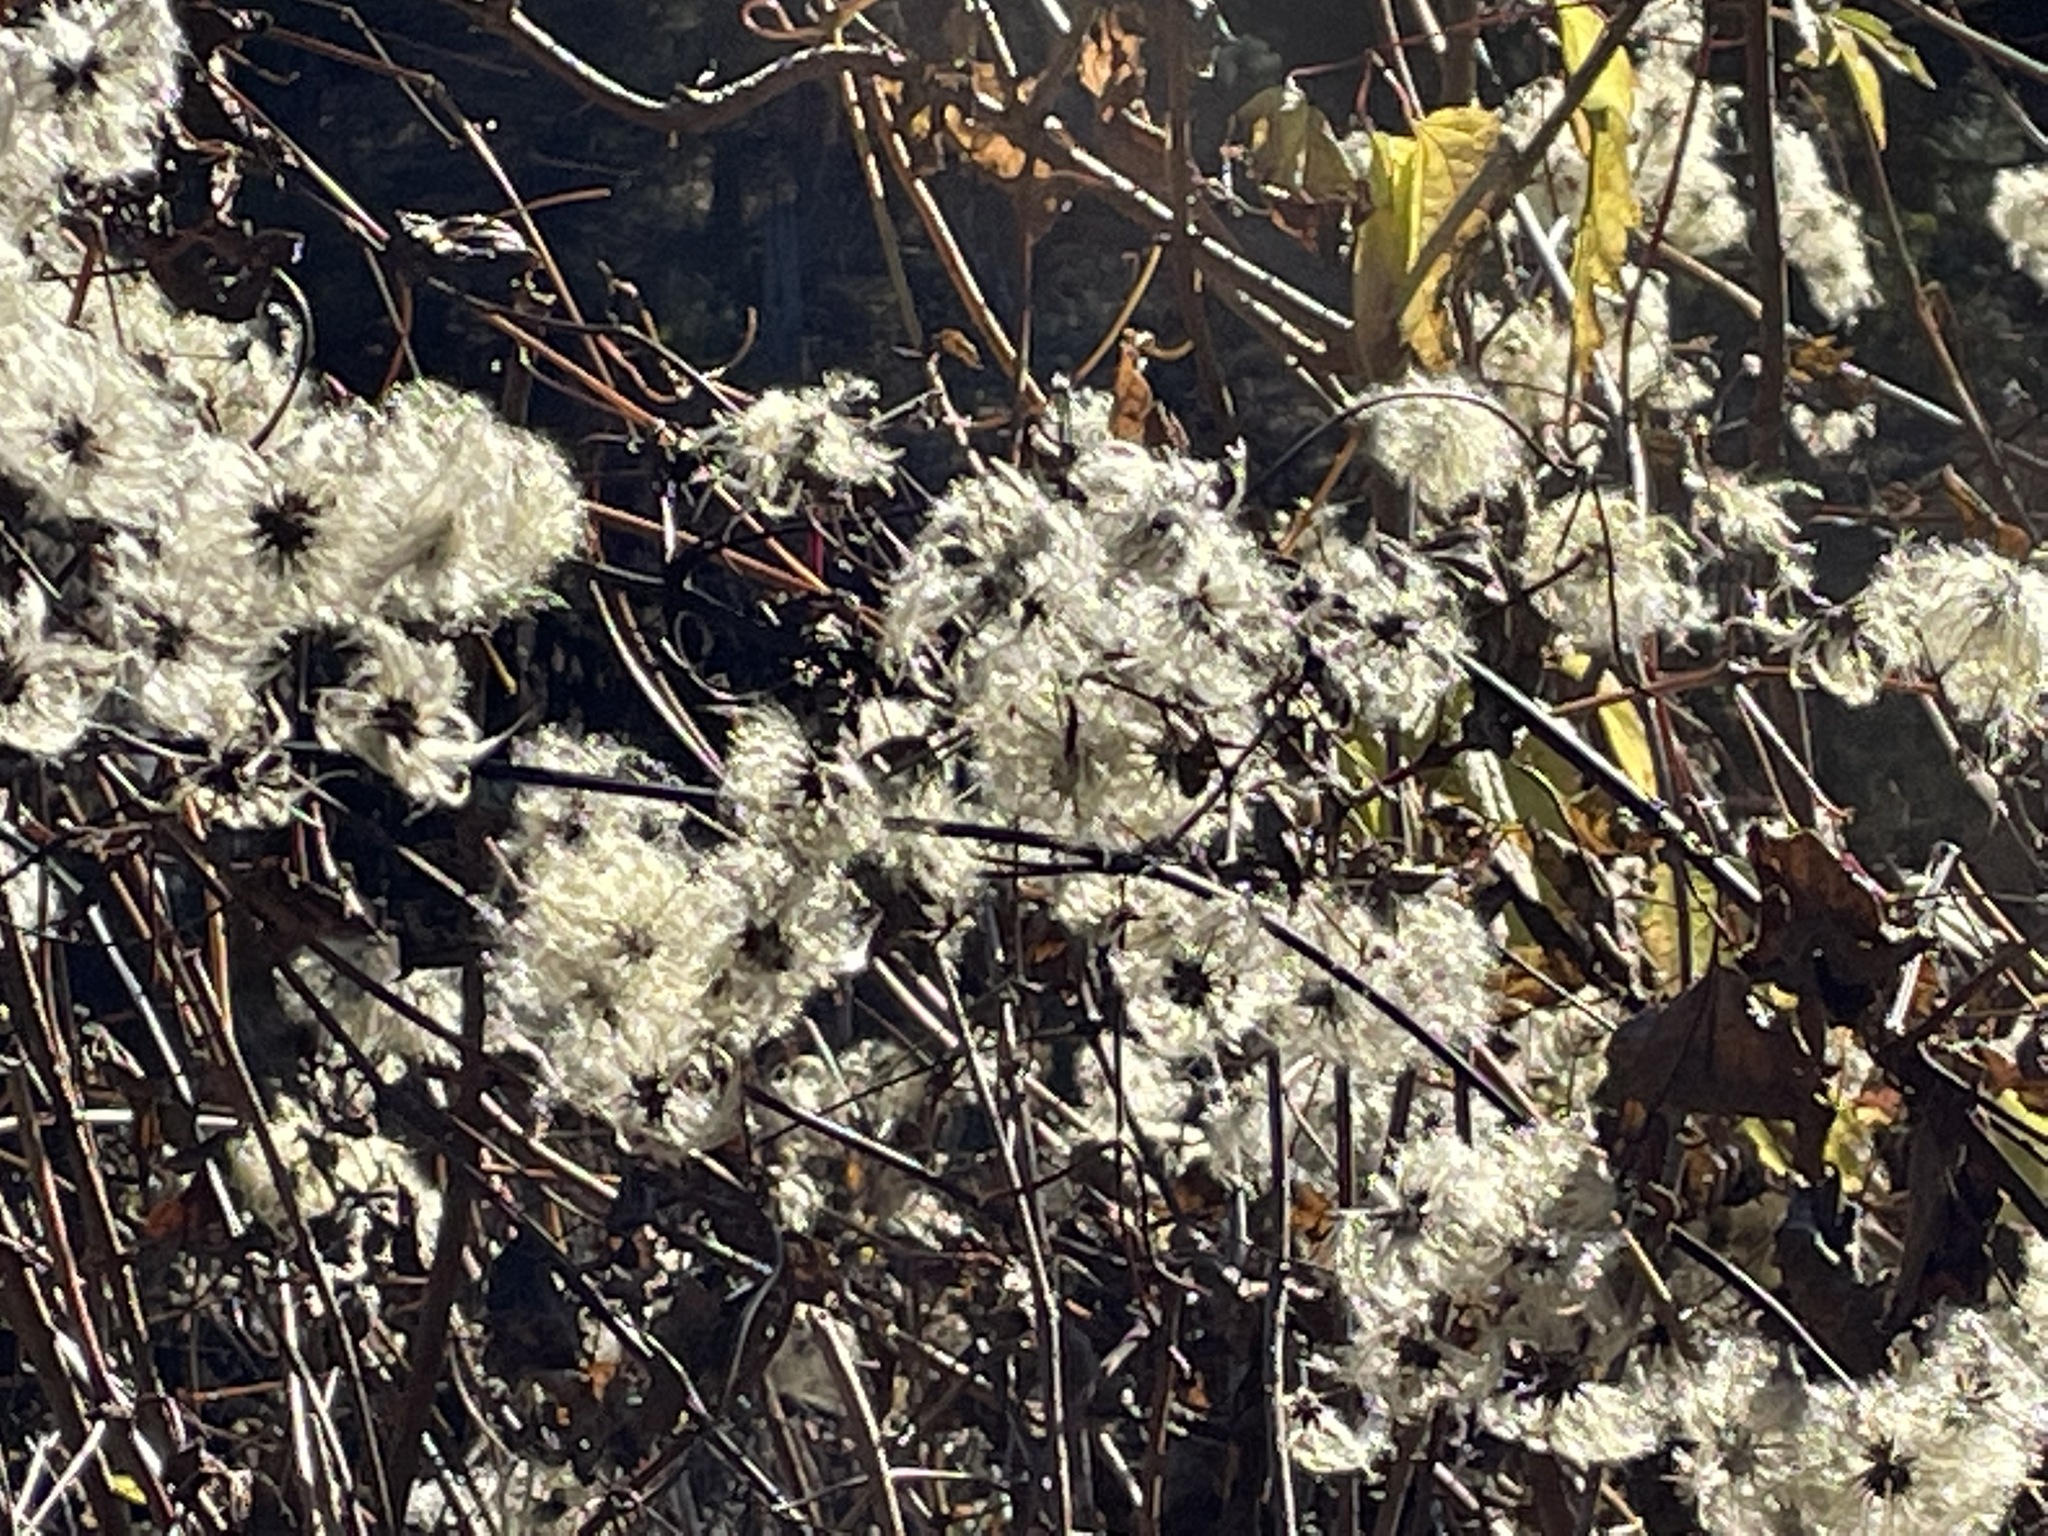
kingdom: Plantae
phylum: Tracheophyta
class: Magnoliopsida
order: Ranunculales
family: Ranunculaceae
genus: Clematis
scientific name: Clematis virginiana
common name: Virgin's-bower
